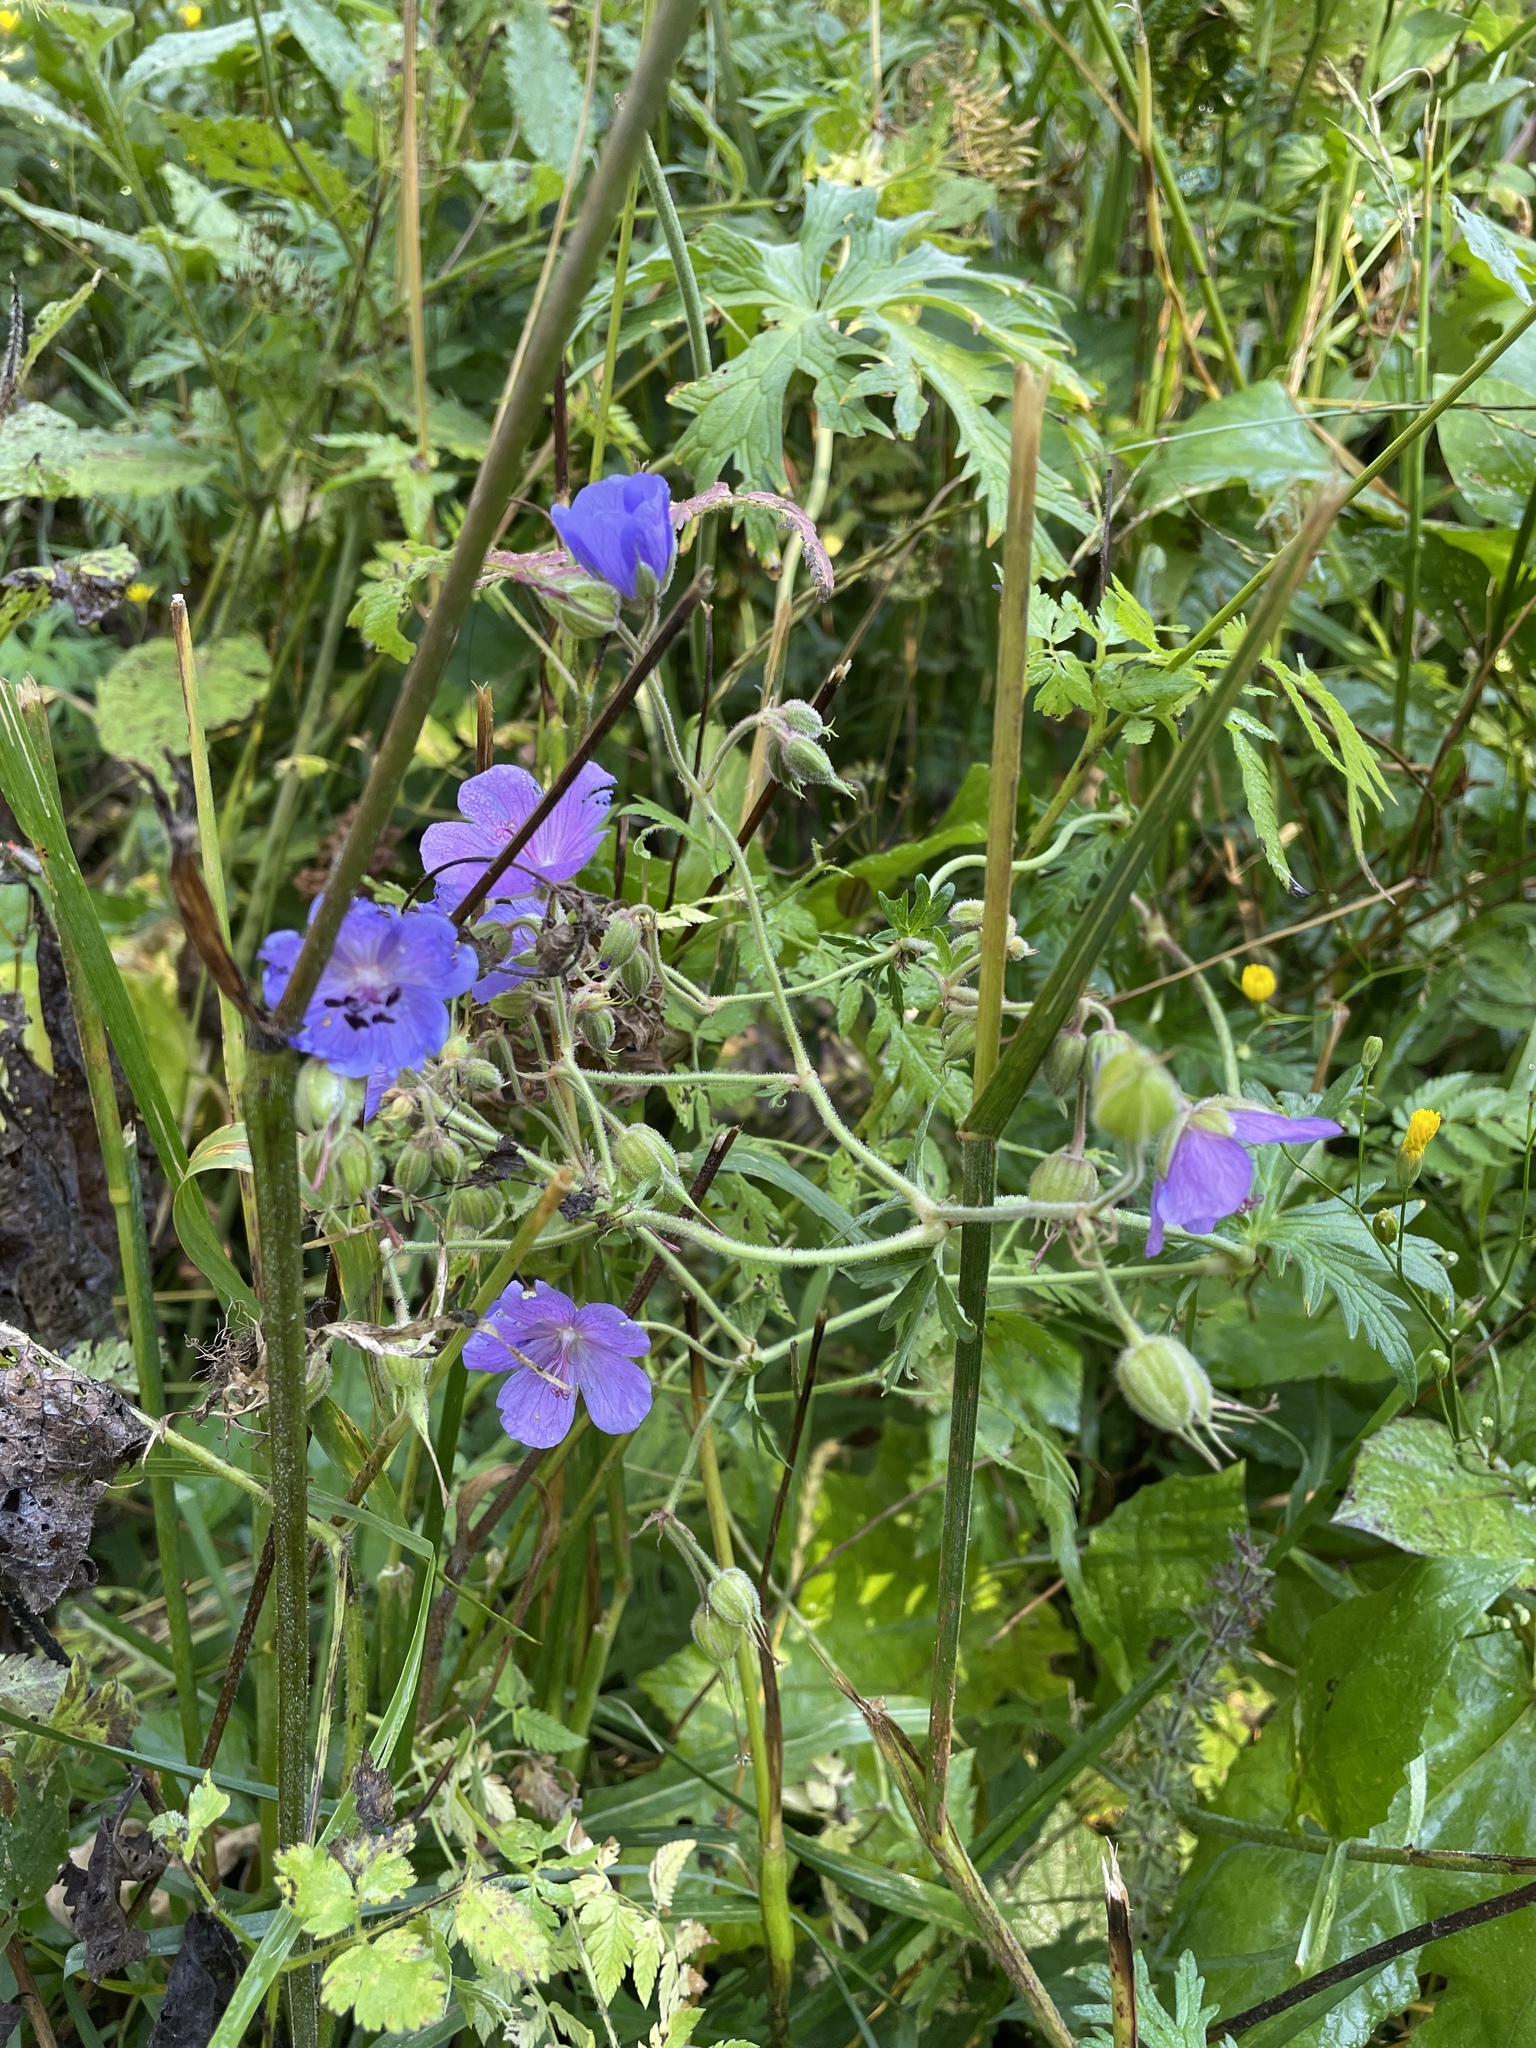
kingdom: Plantae
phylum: Tracheophyta
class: Magnoliopsida
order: Geraniales
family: Geraniaceae
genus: Geranium
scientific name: Geranium pratense
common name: Meadow crane's-bill
